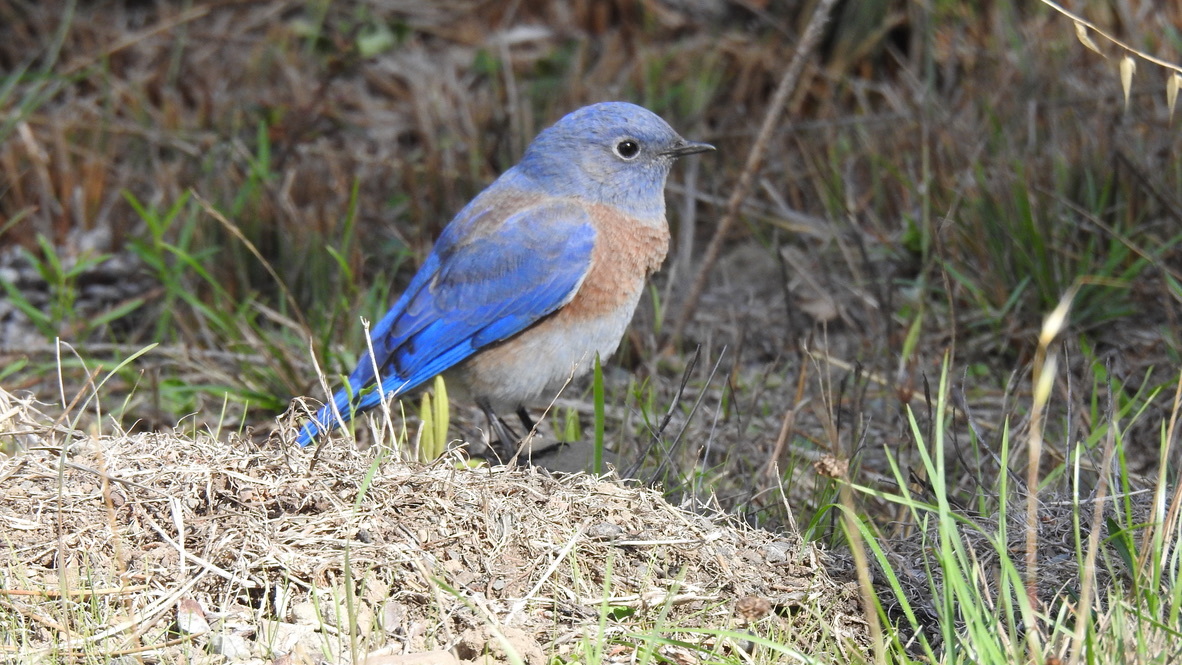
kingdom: Animalia
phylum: Chordata
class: Aves
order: Passeriformes
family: Turdidae
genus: Sialia
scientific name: Sialia mexicana
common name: Western bluebird
